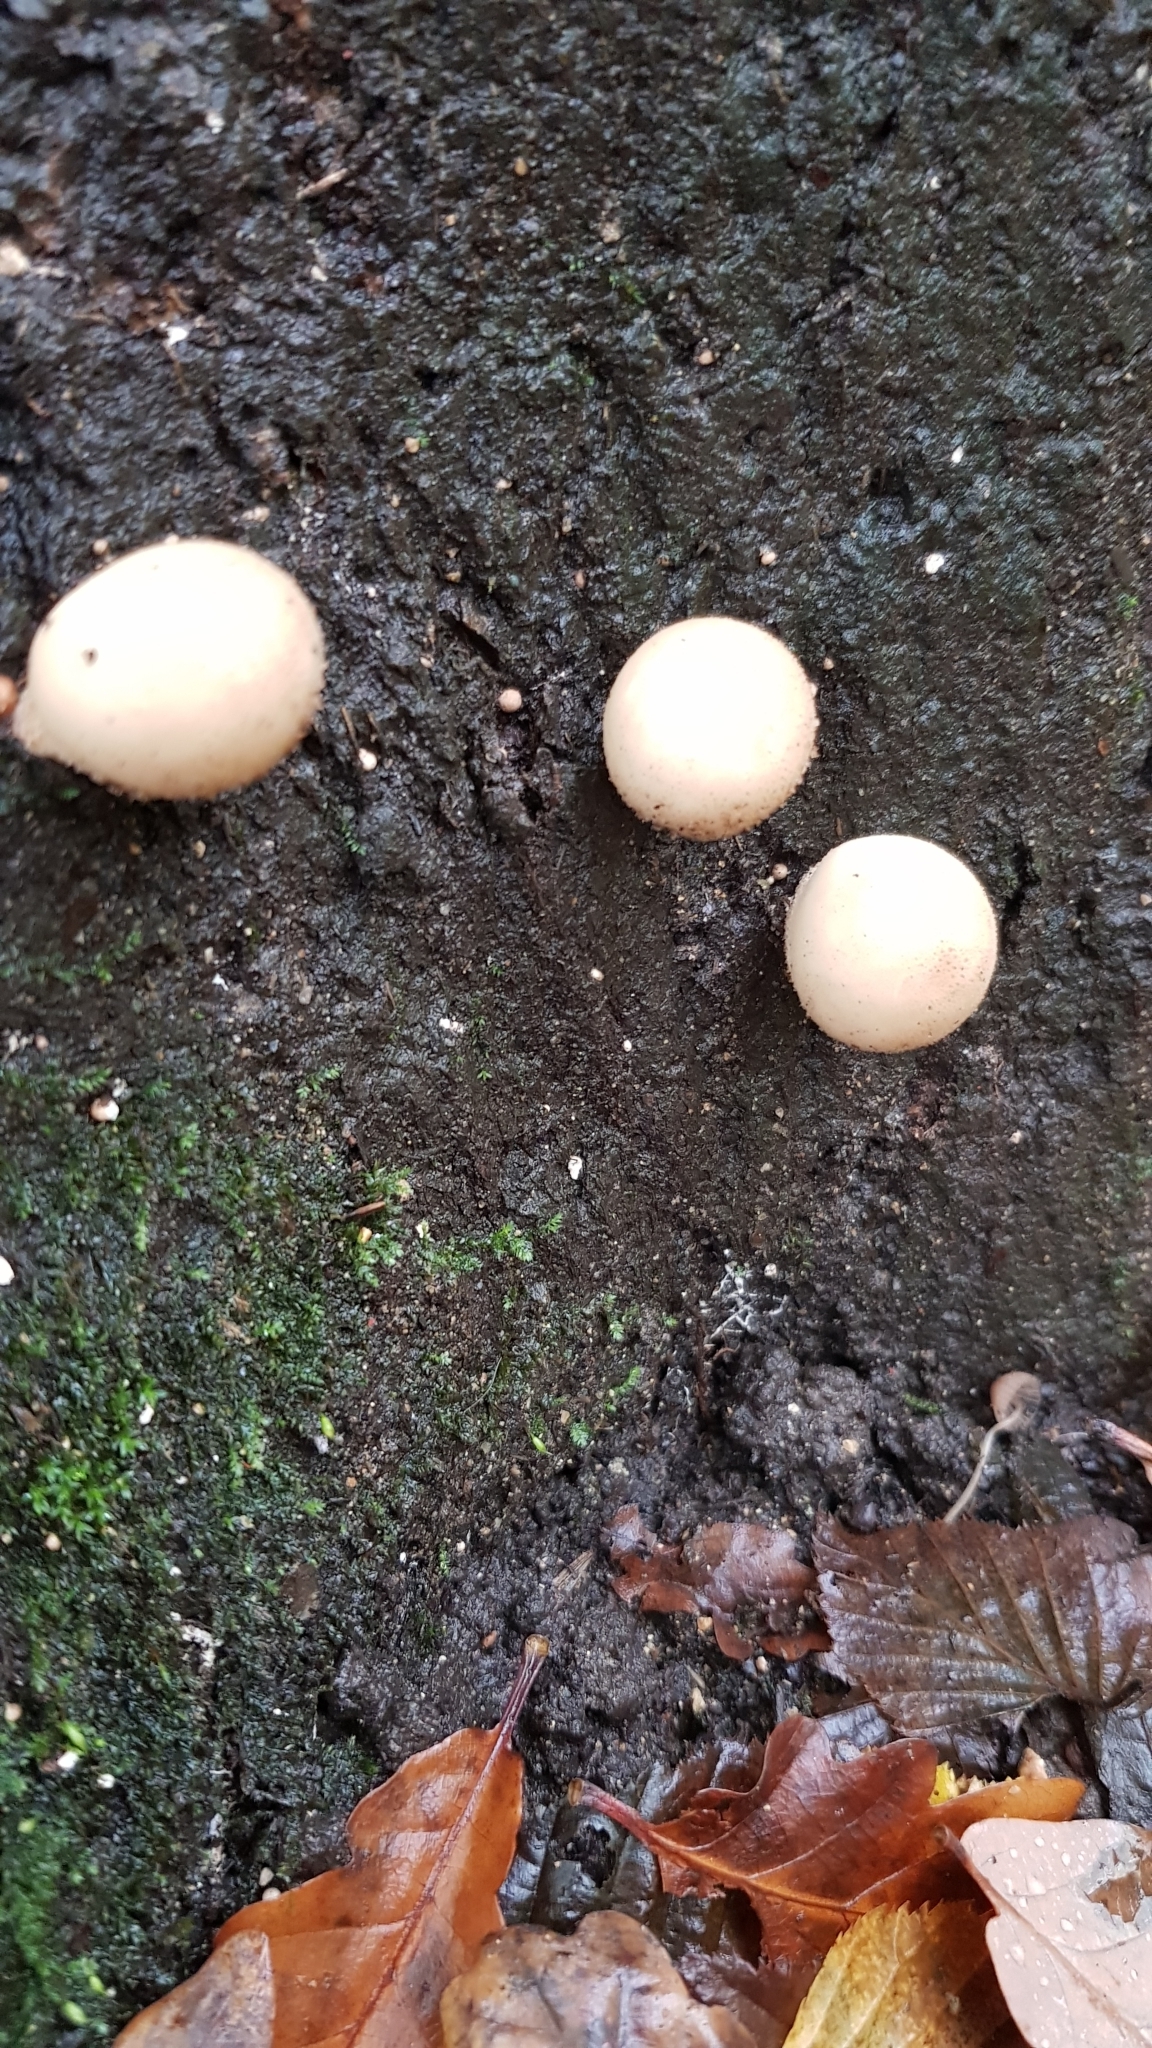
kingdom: Fungi
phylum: Basidiomycota
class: Agaricomycetes
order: Agaricales
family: Lycoperdaceae
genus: Apioperdon
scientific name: Apioperdon pyriforme
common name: Pear-shaped puffball
